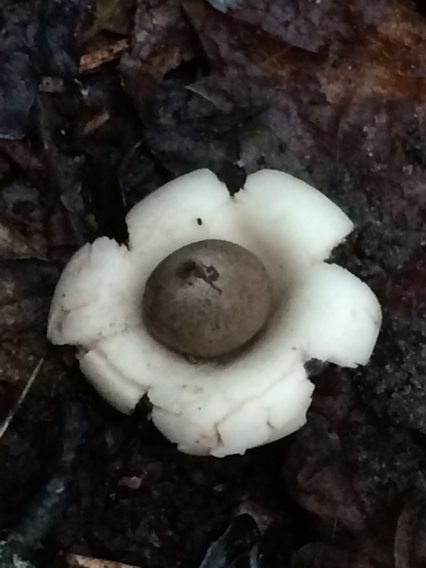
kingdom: Fungi
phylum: Basidiomycota
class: Agaricomycetes
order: Geastrales
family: Geastraceae
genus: Geastrum
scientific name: Geastrum saccatum
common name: Rounded earthstar
